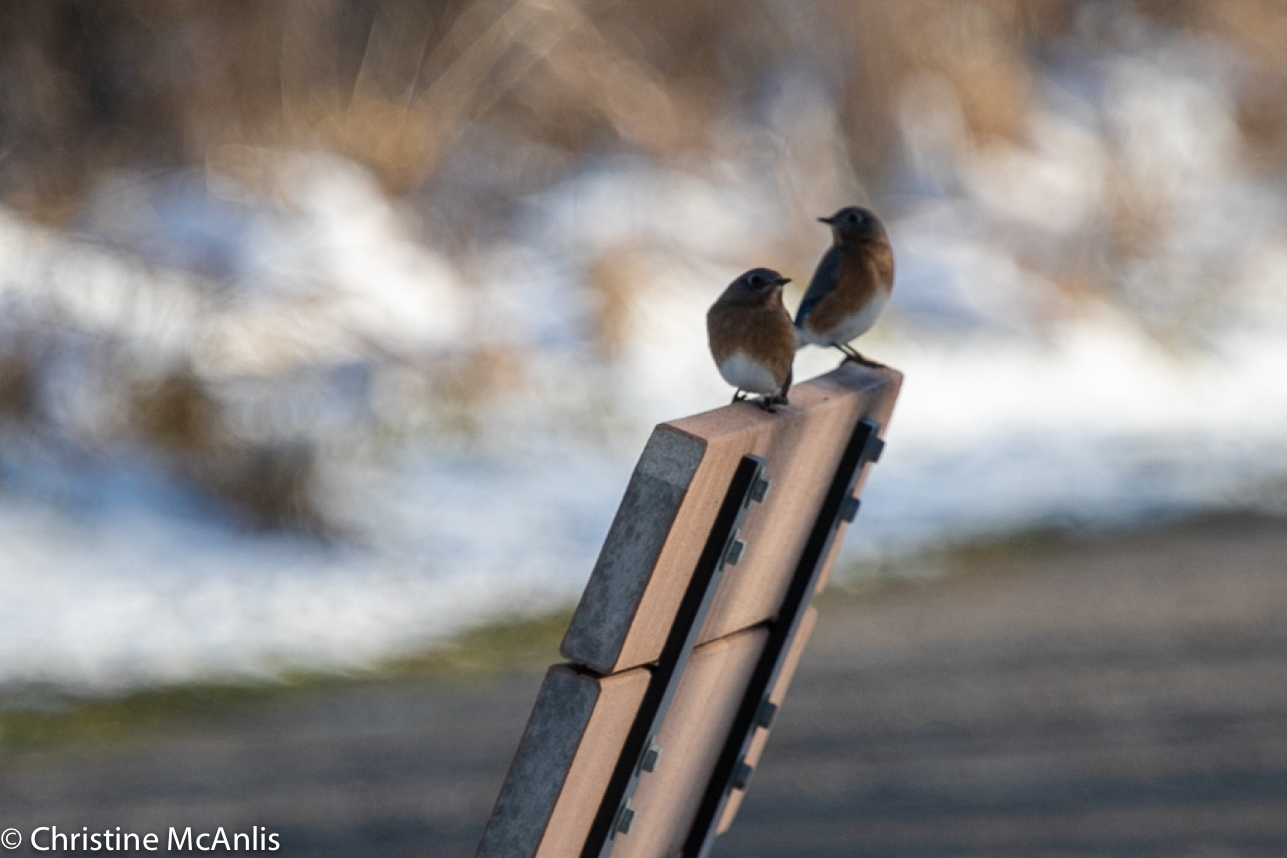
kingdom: Animalia
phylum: Chordata
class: Aves
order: Passeriformes
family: Turdidae
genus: Sialia
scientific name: Sialia sialis
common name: Eastern bluebird
